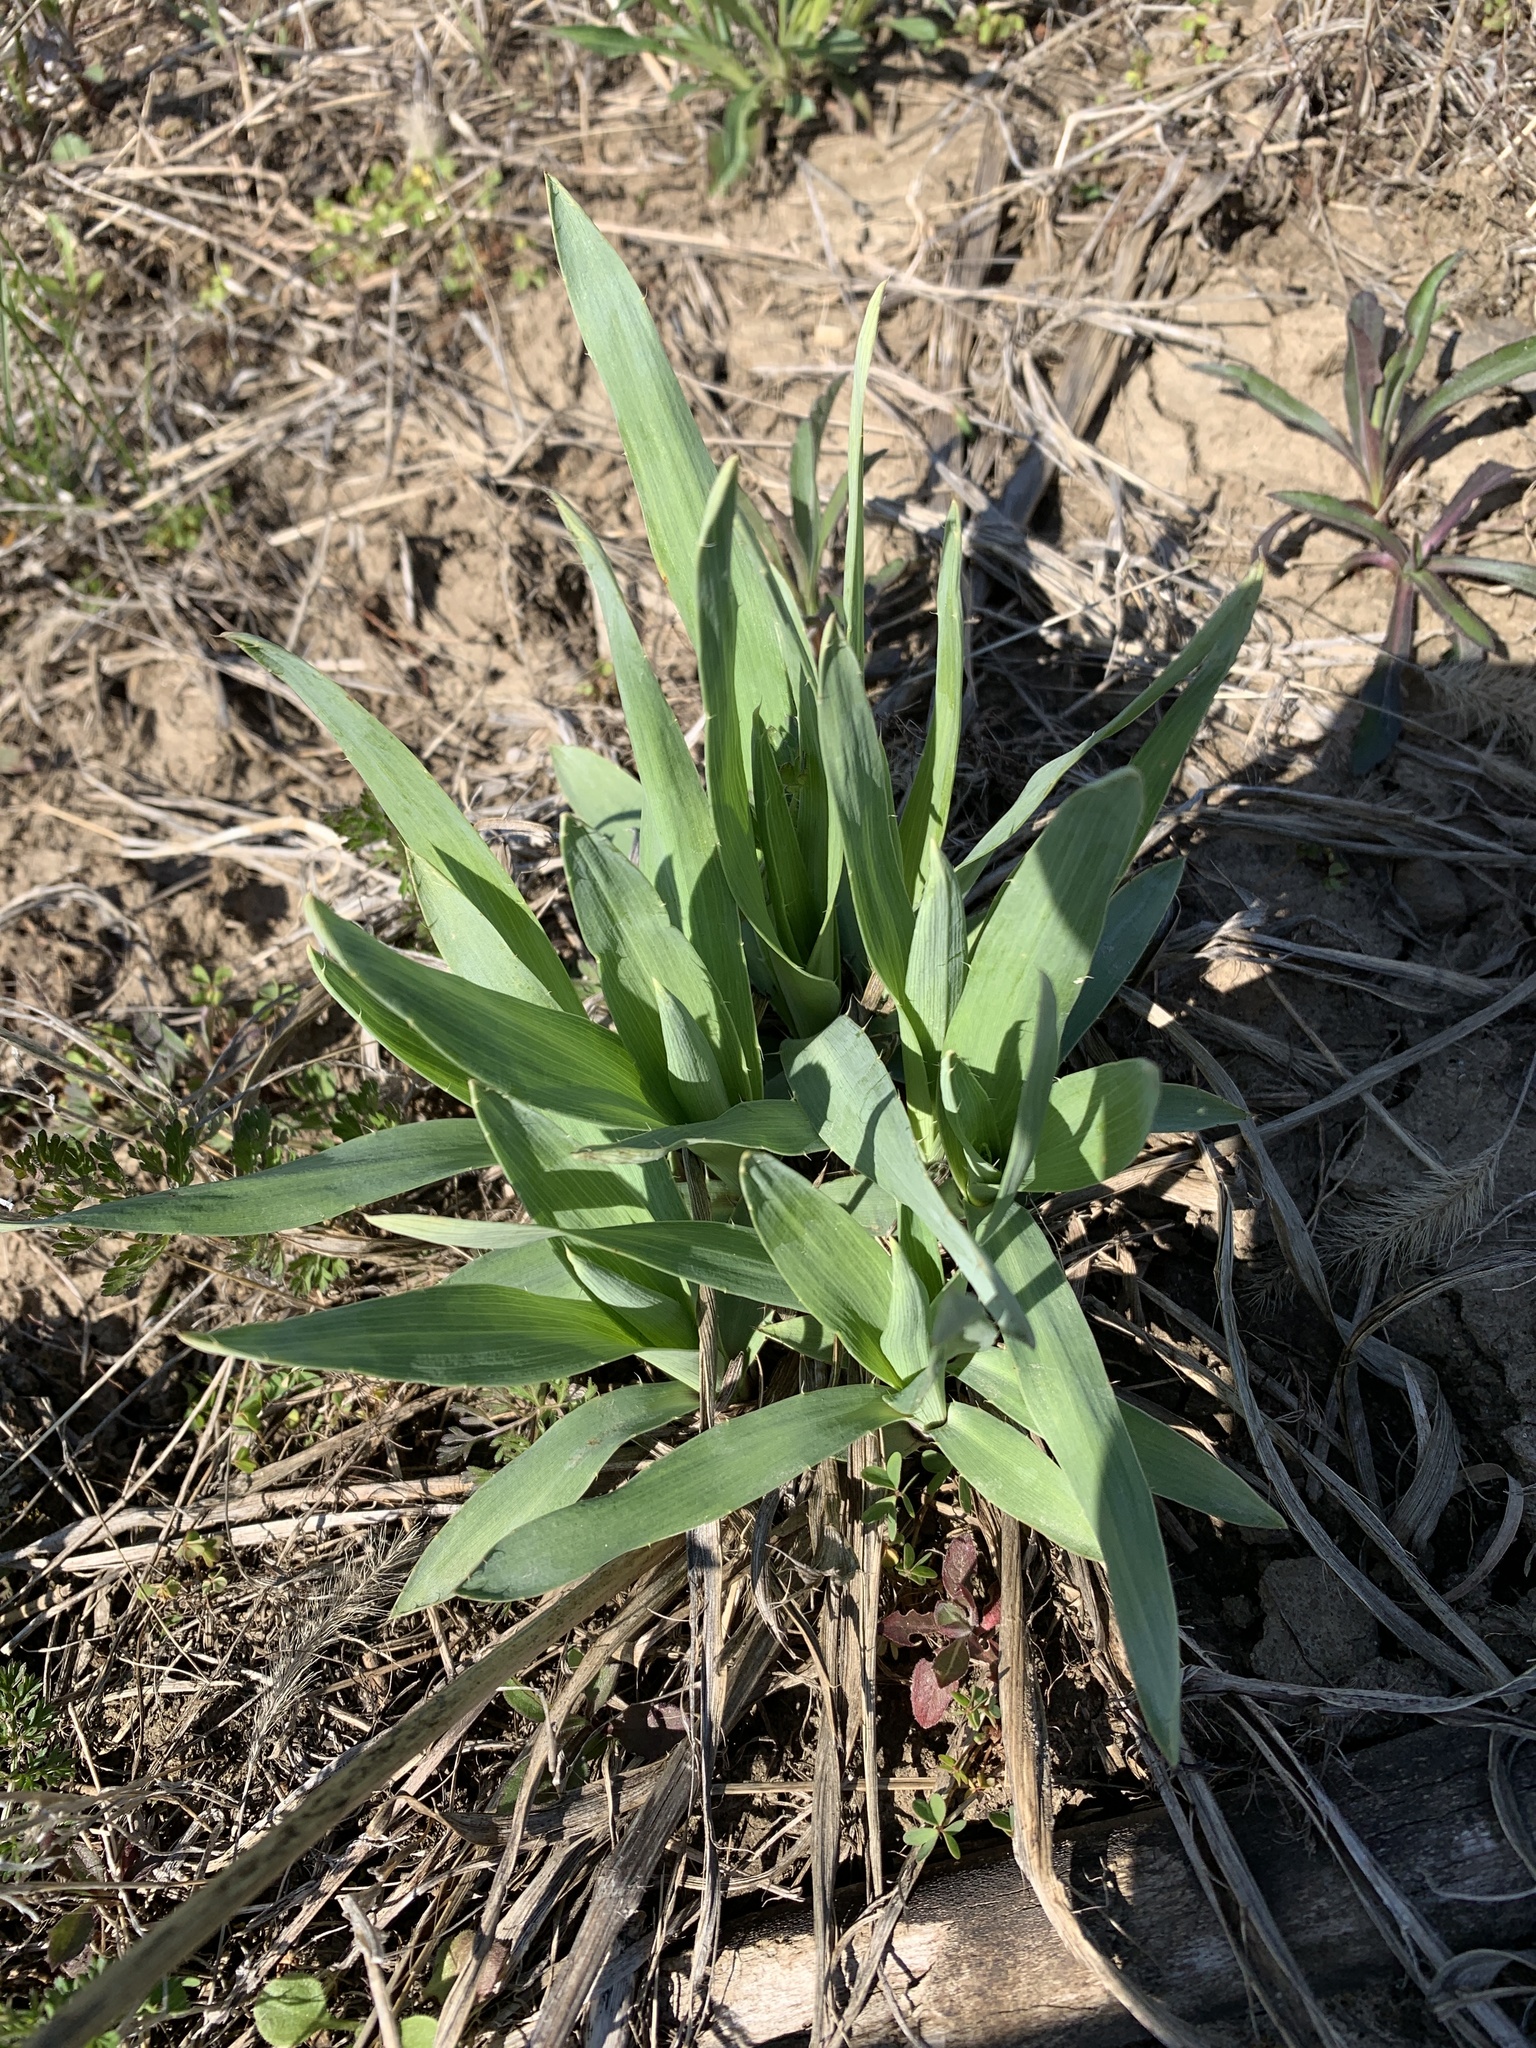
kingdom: Plantae
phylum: Tracheophyta
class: Magnoliopsida
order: Apiales
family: Apiaceae
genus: Eryngium
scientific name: Eryngium yuccifolium
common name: Button eryngo
